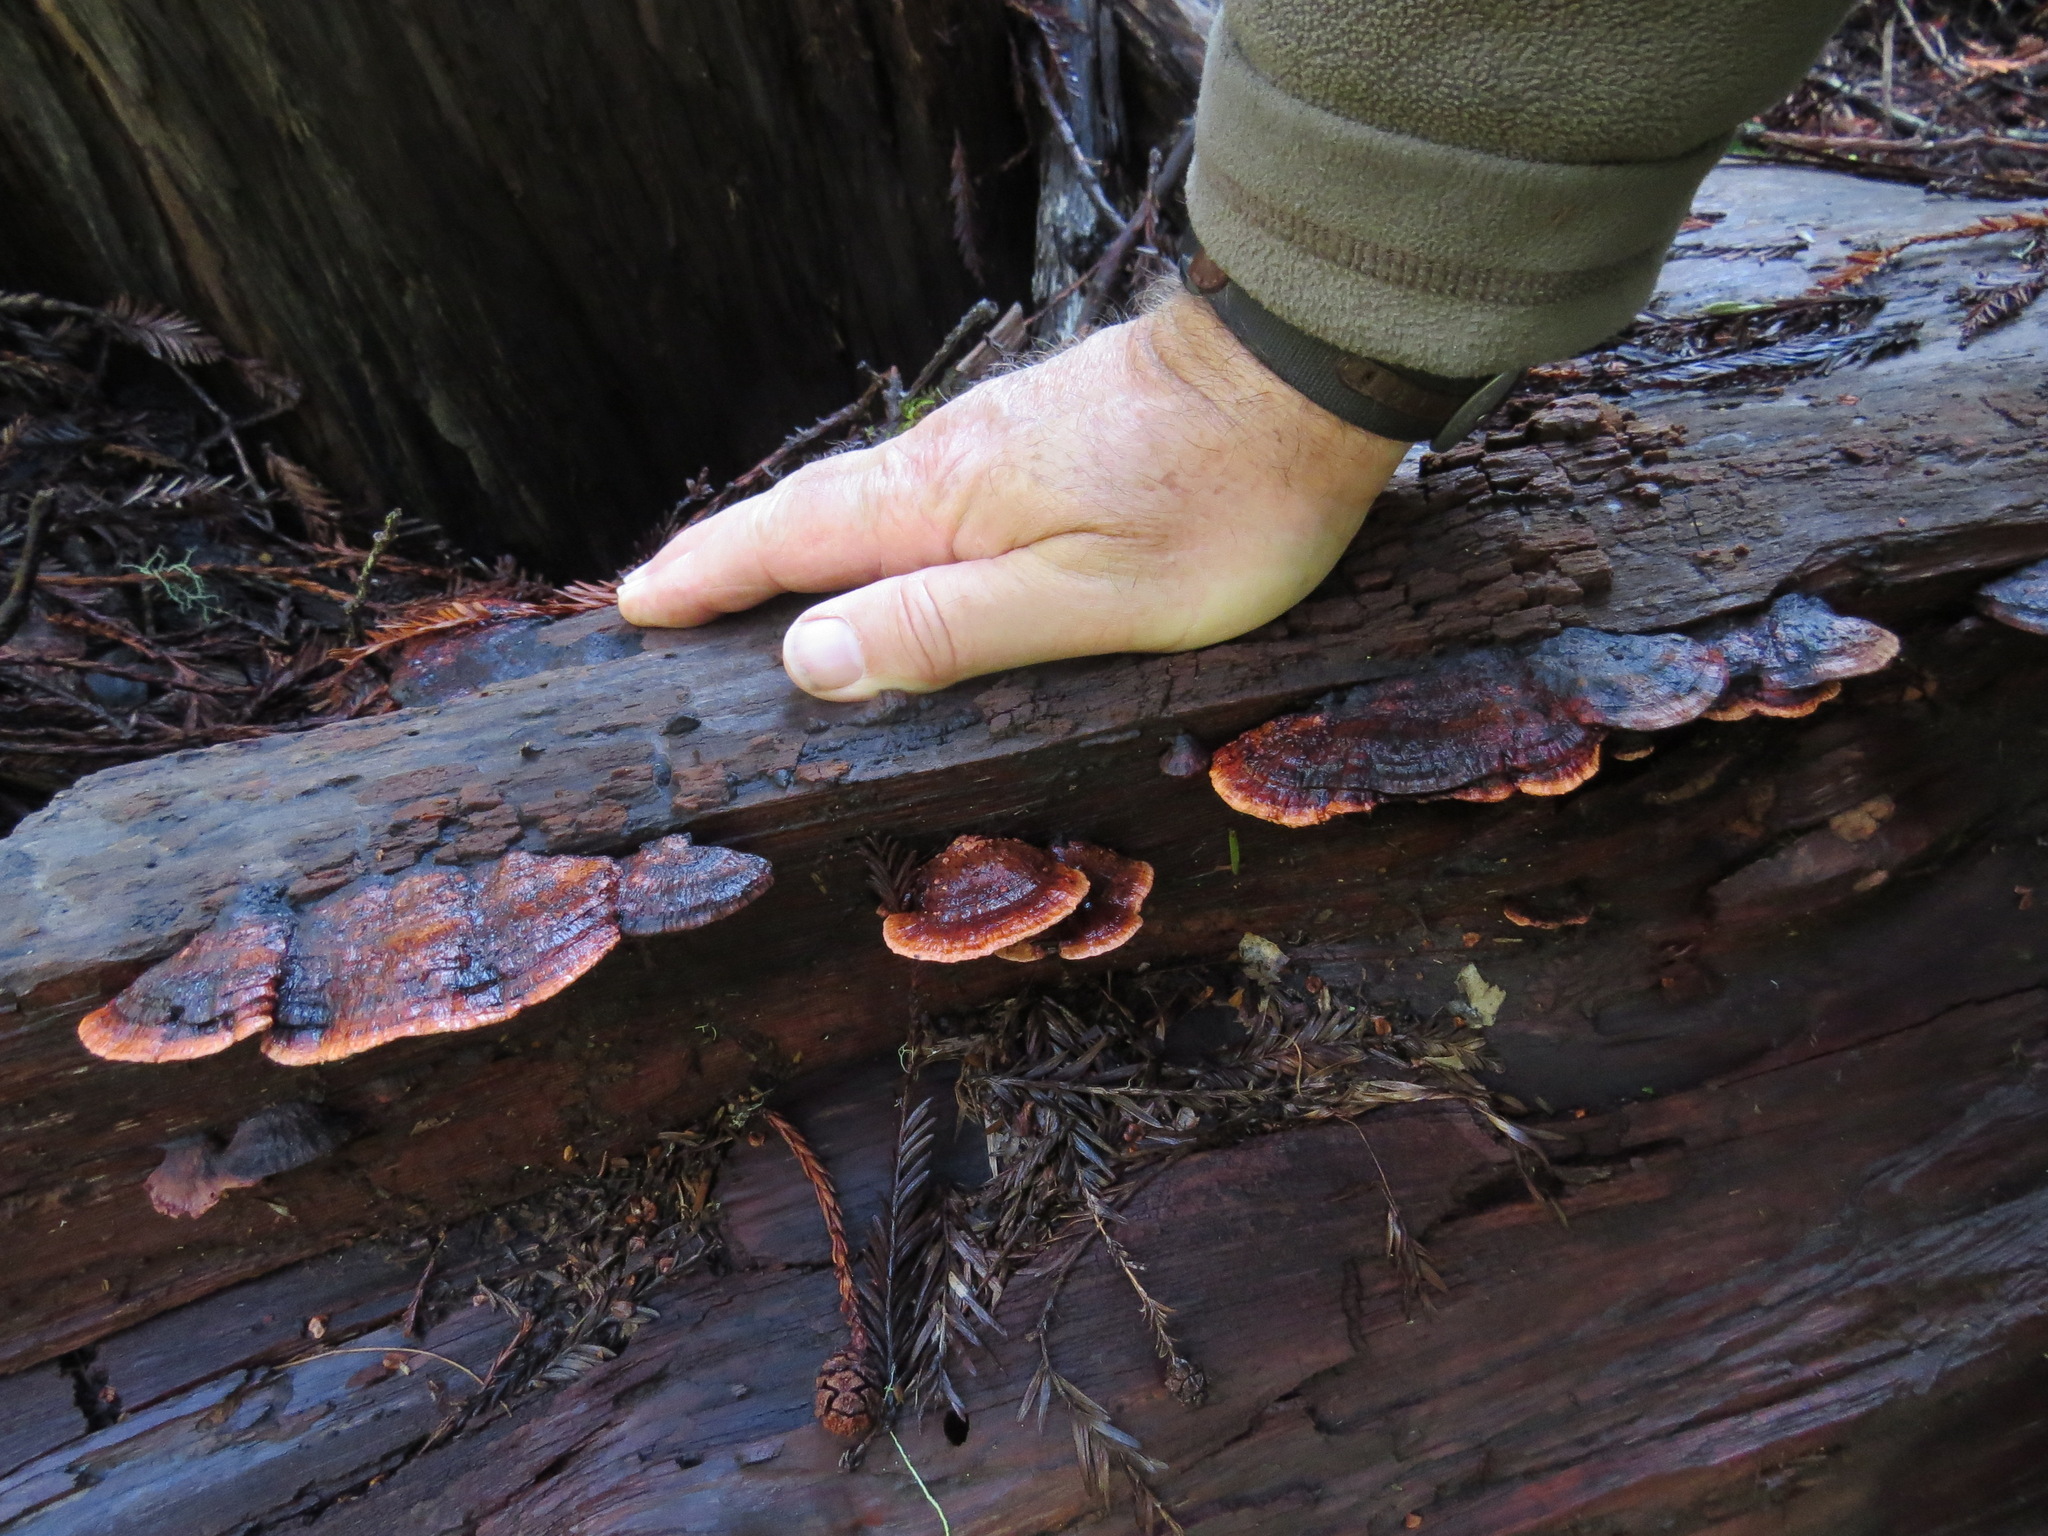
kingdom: Fungi
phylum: Basidiomycota
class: Agaricomycetes
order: Polyporales
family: Fomitopsidaceae
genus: Rhodofomes
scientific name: Rhodofomes cajanderi
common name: Rosy conk
